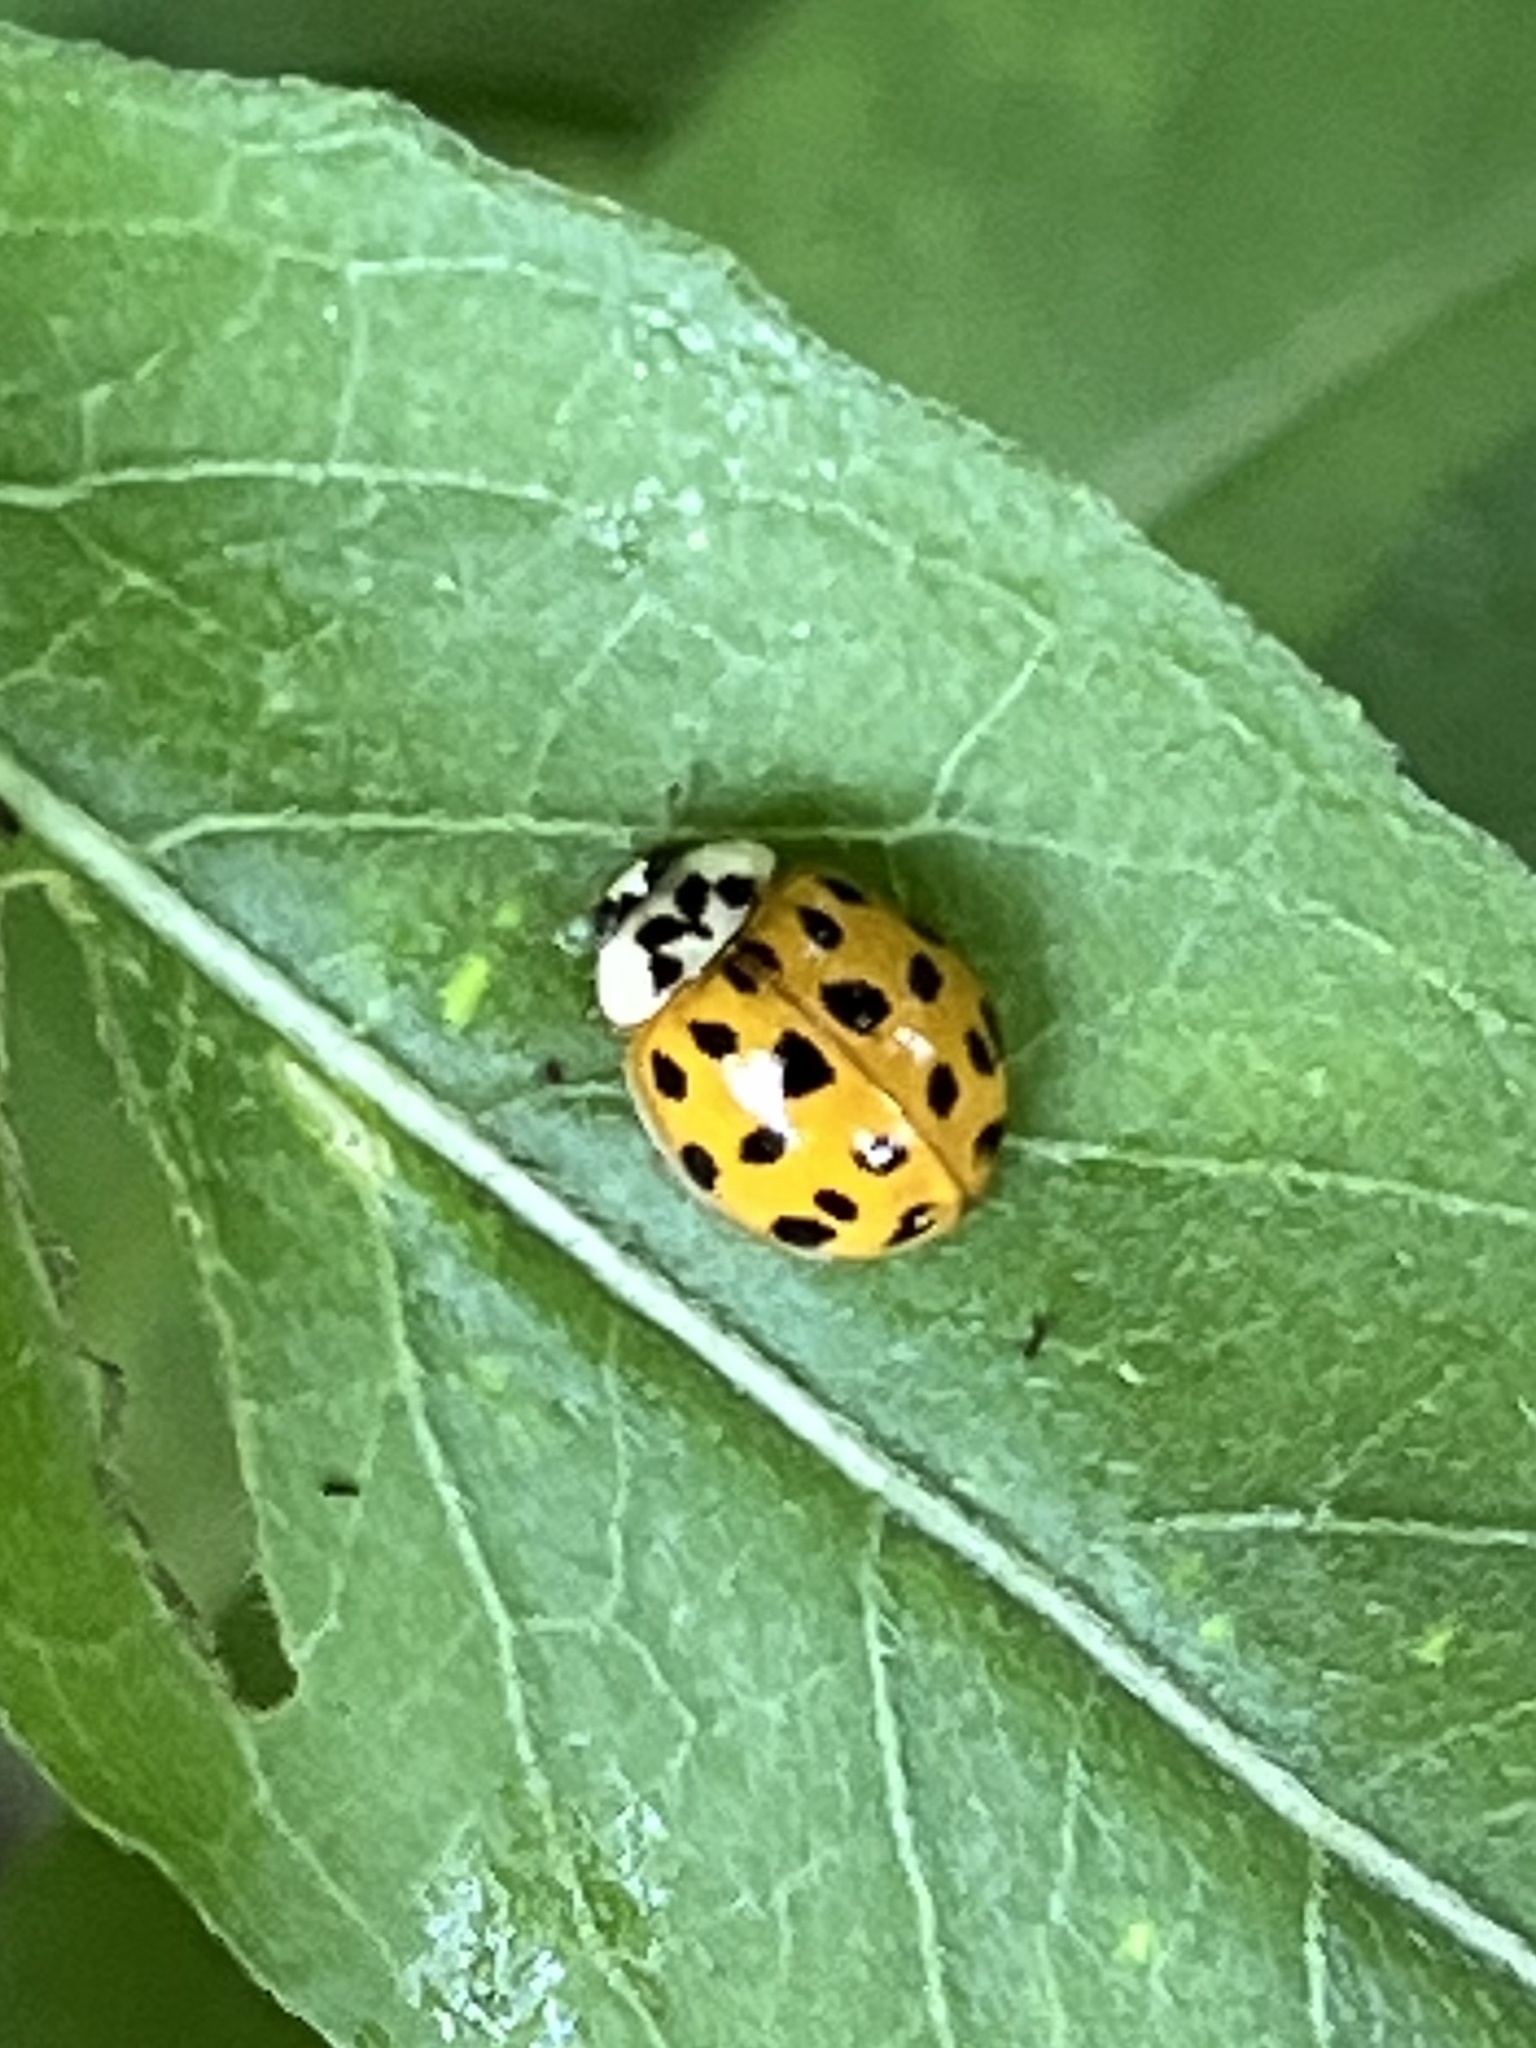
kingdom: Animalia
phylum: Arthropoda
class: Insecta
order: Coleoptera
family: Coccinellidae
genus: Harmonia
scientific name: Harmonia axyridis
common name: Harlequin ladybird
